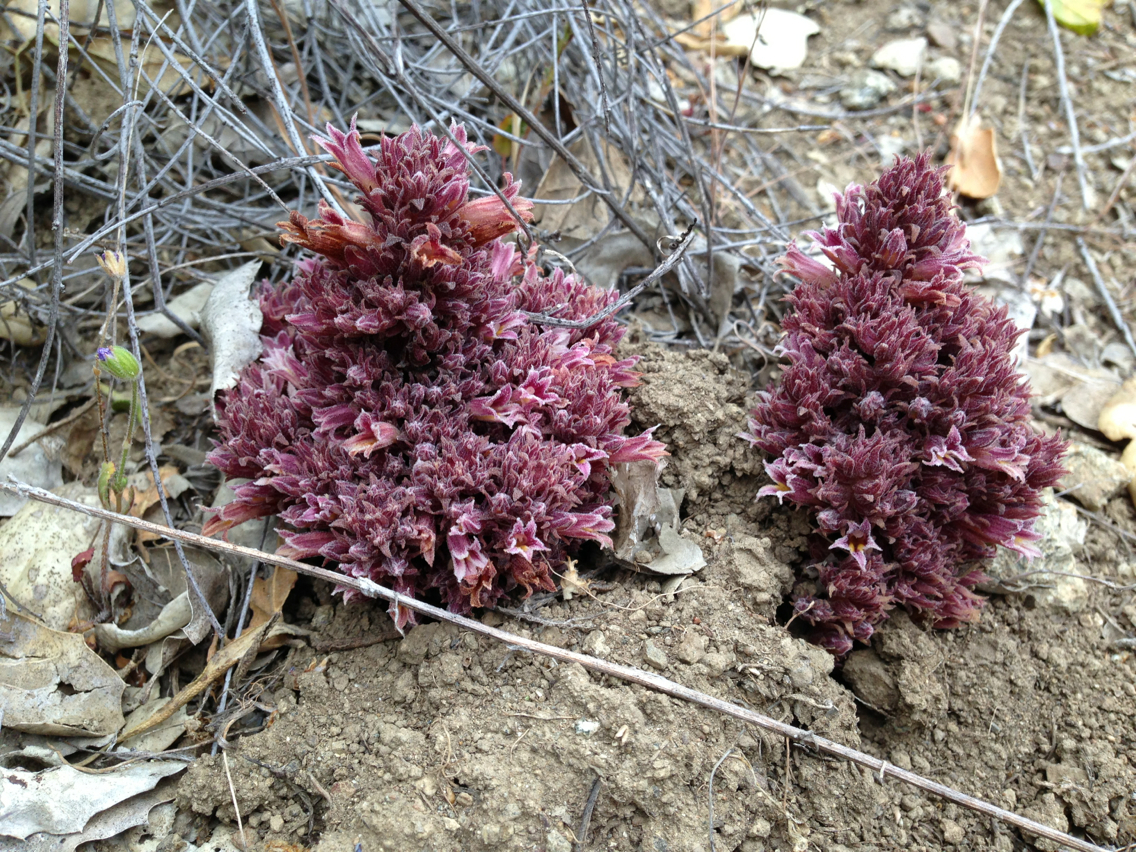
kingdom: Plantae
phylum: Tracheophyta
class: Magnoliopsida
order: Lamiales
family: Orobanchaceae
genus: Aphyllon
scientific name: Aphyllon tuberosum
